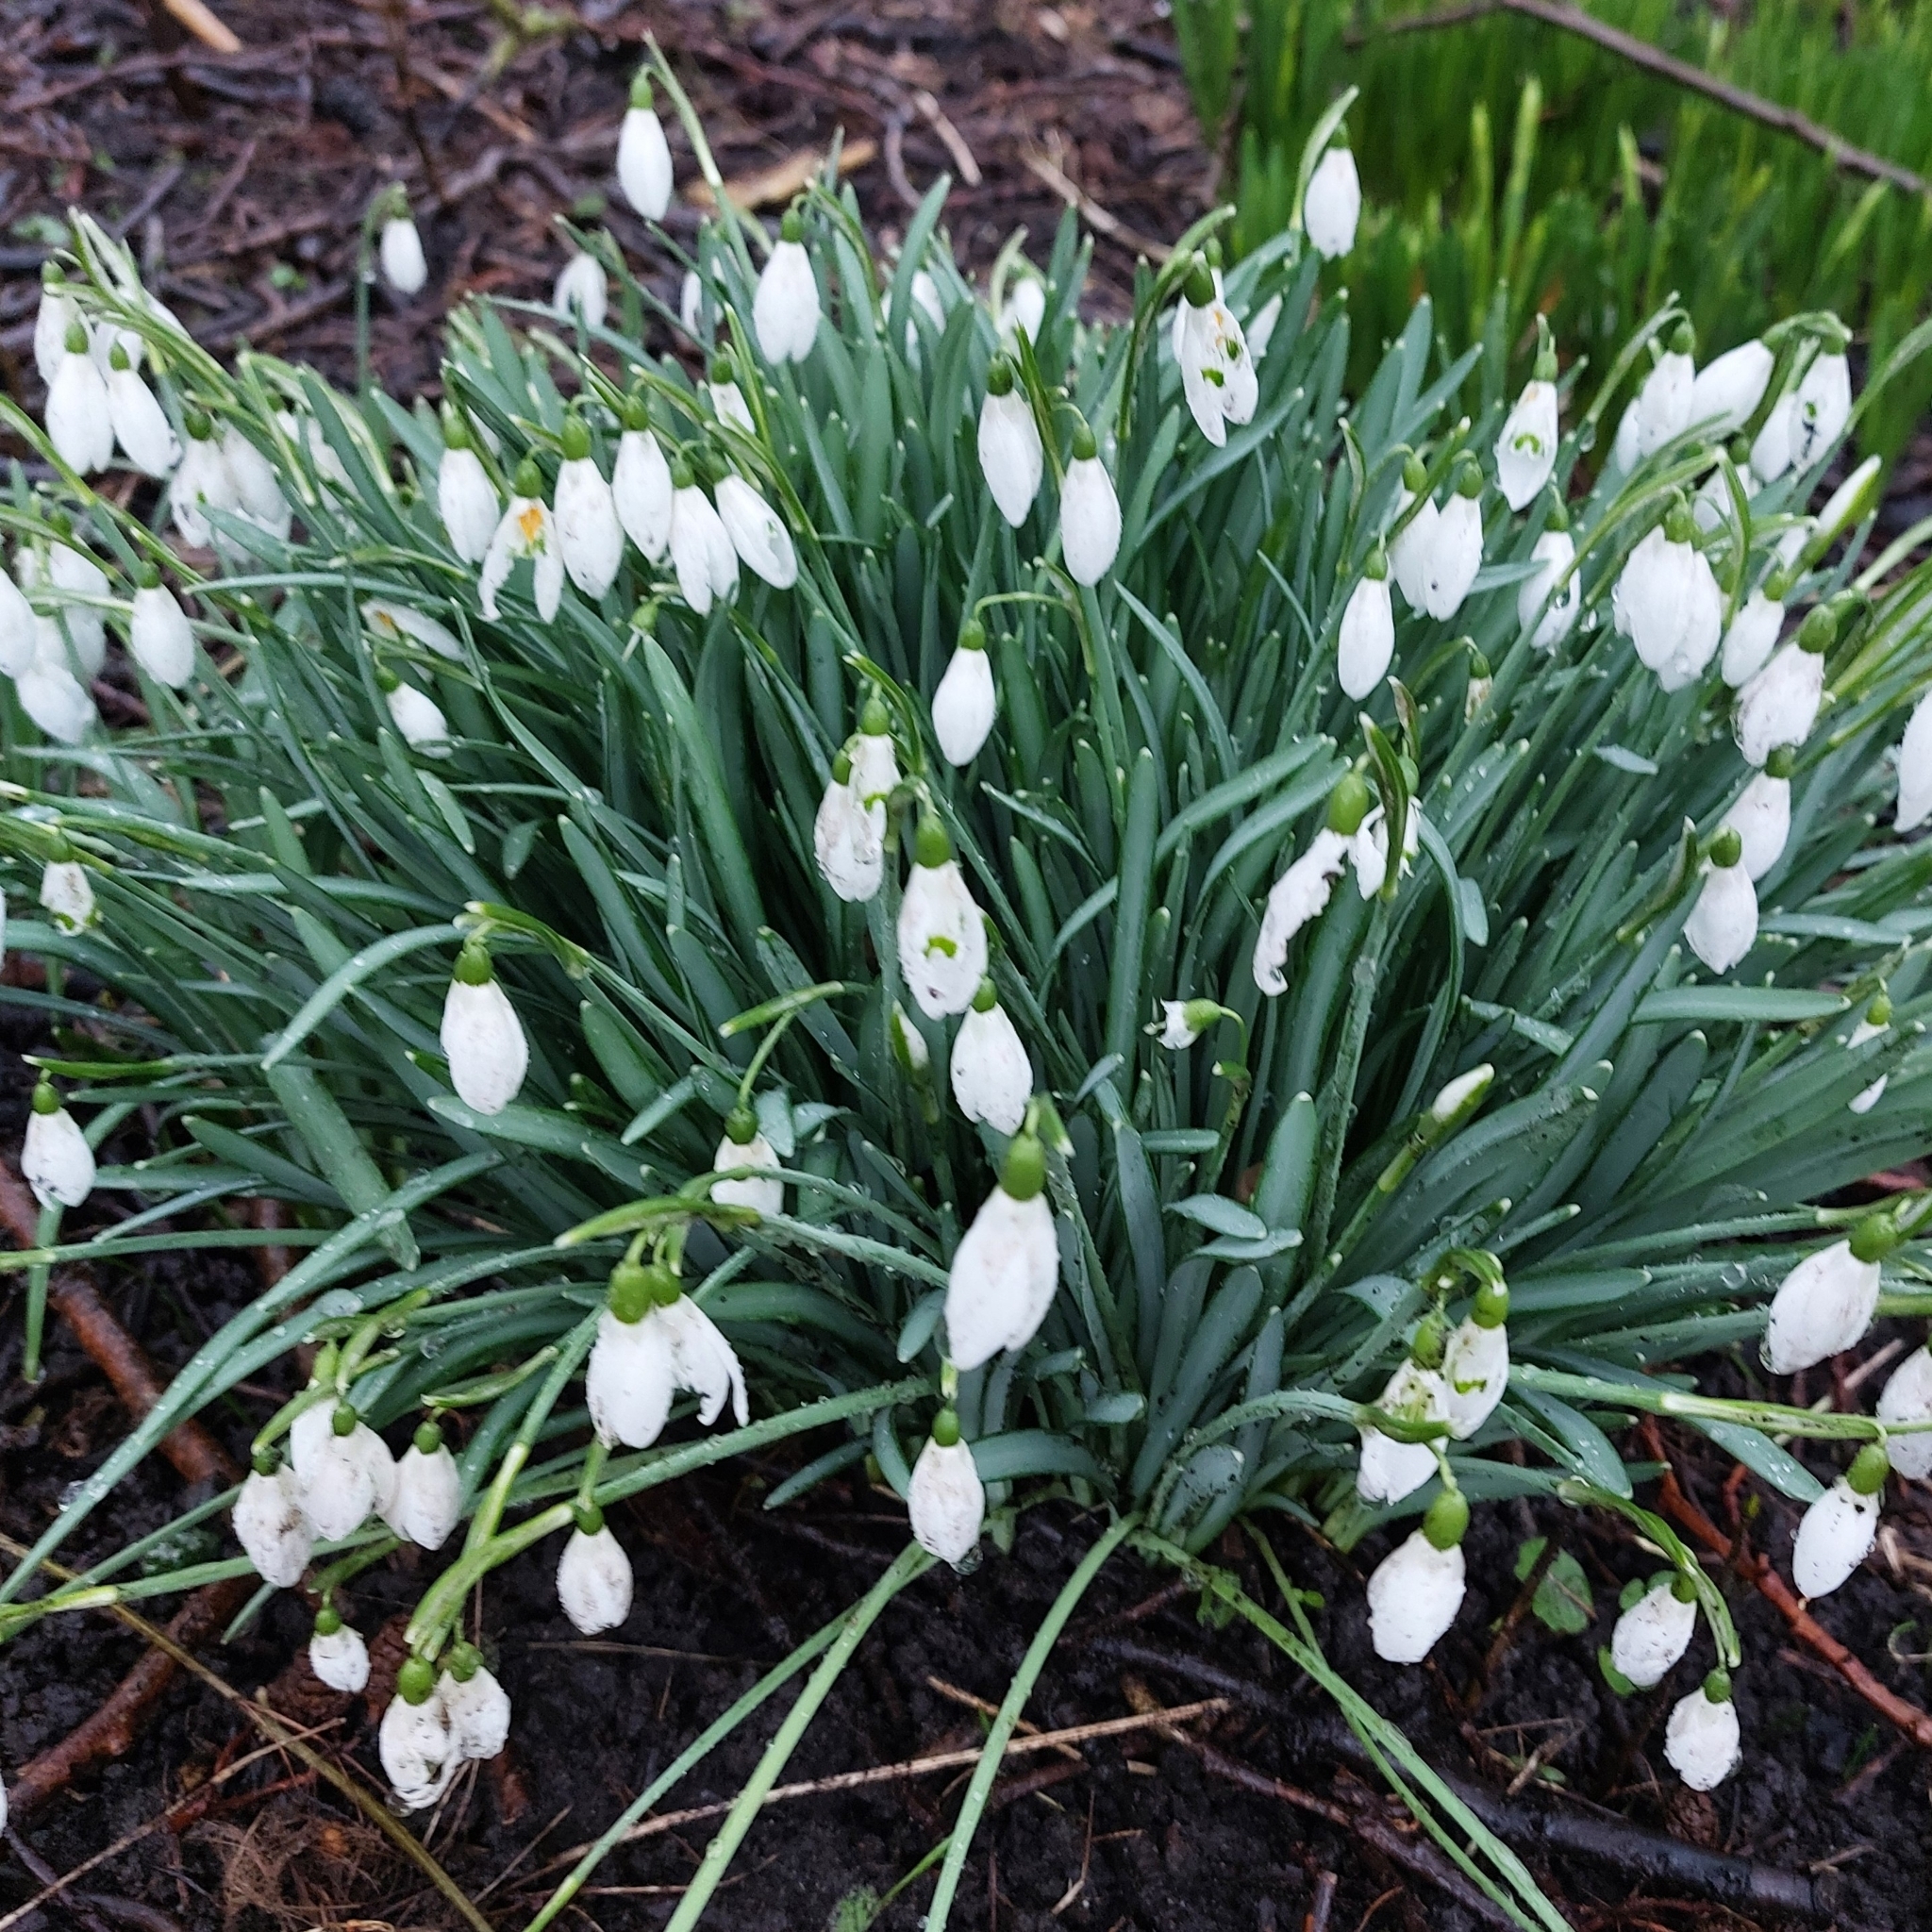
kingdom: Plantae
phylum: Tracheophyta
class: Liliopsida
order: Asparagales
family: Amaryllidaceae
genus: Galanthus
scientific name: Galanthus nivalis
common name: Snowdrop
